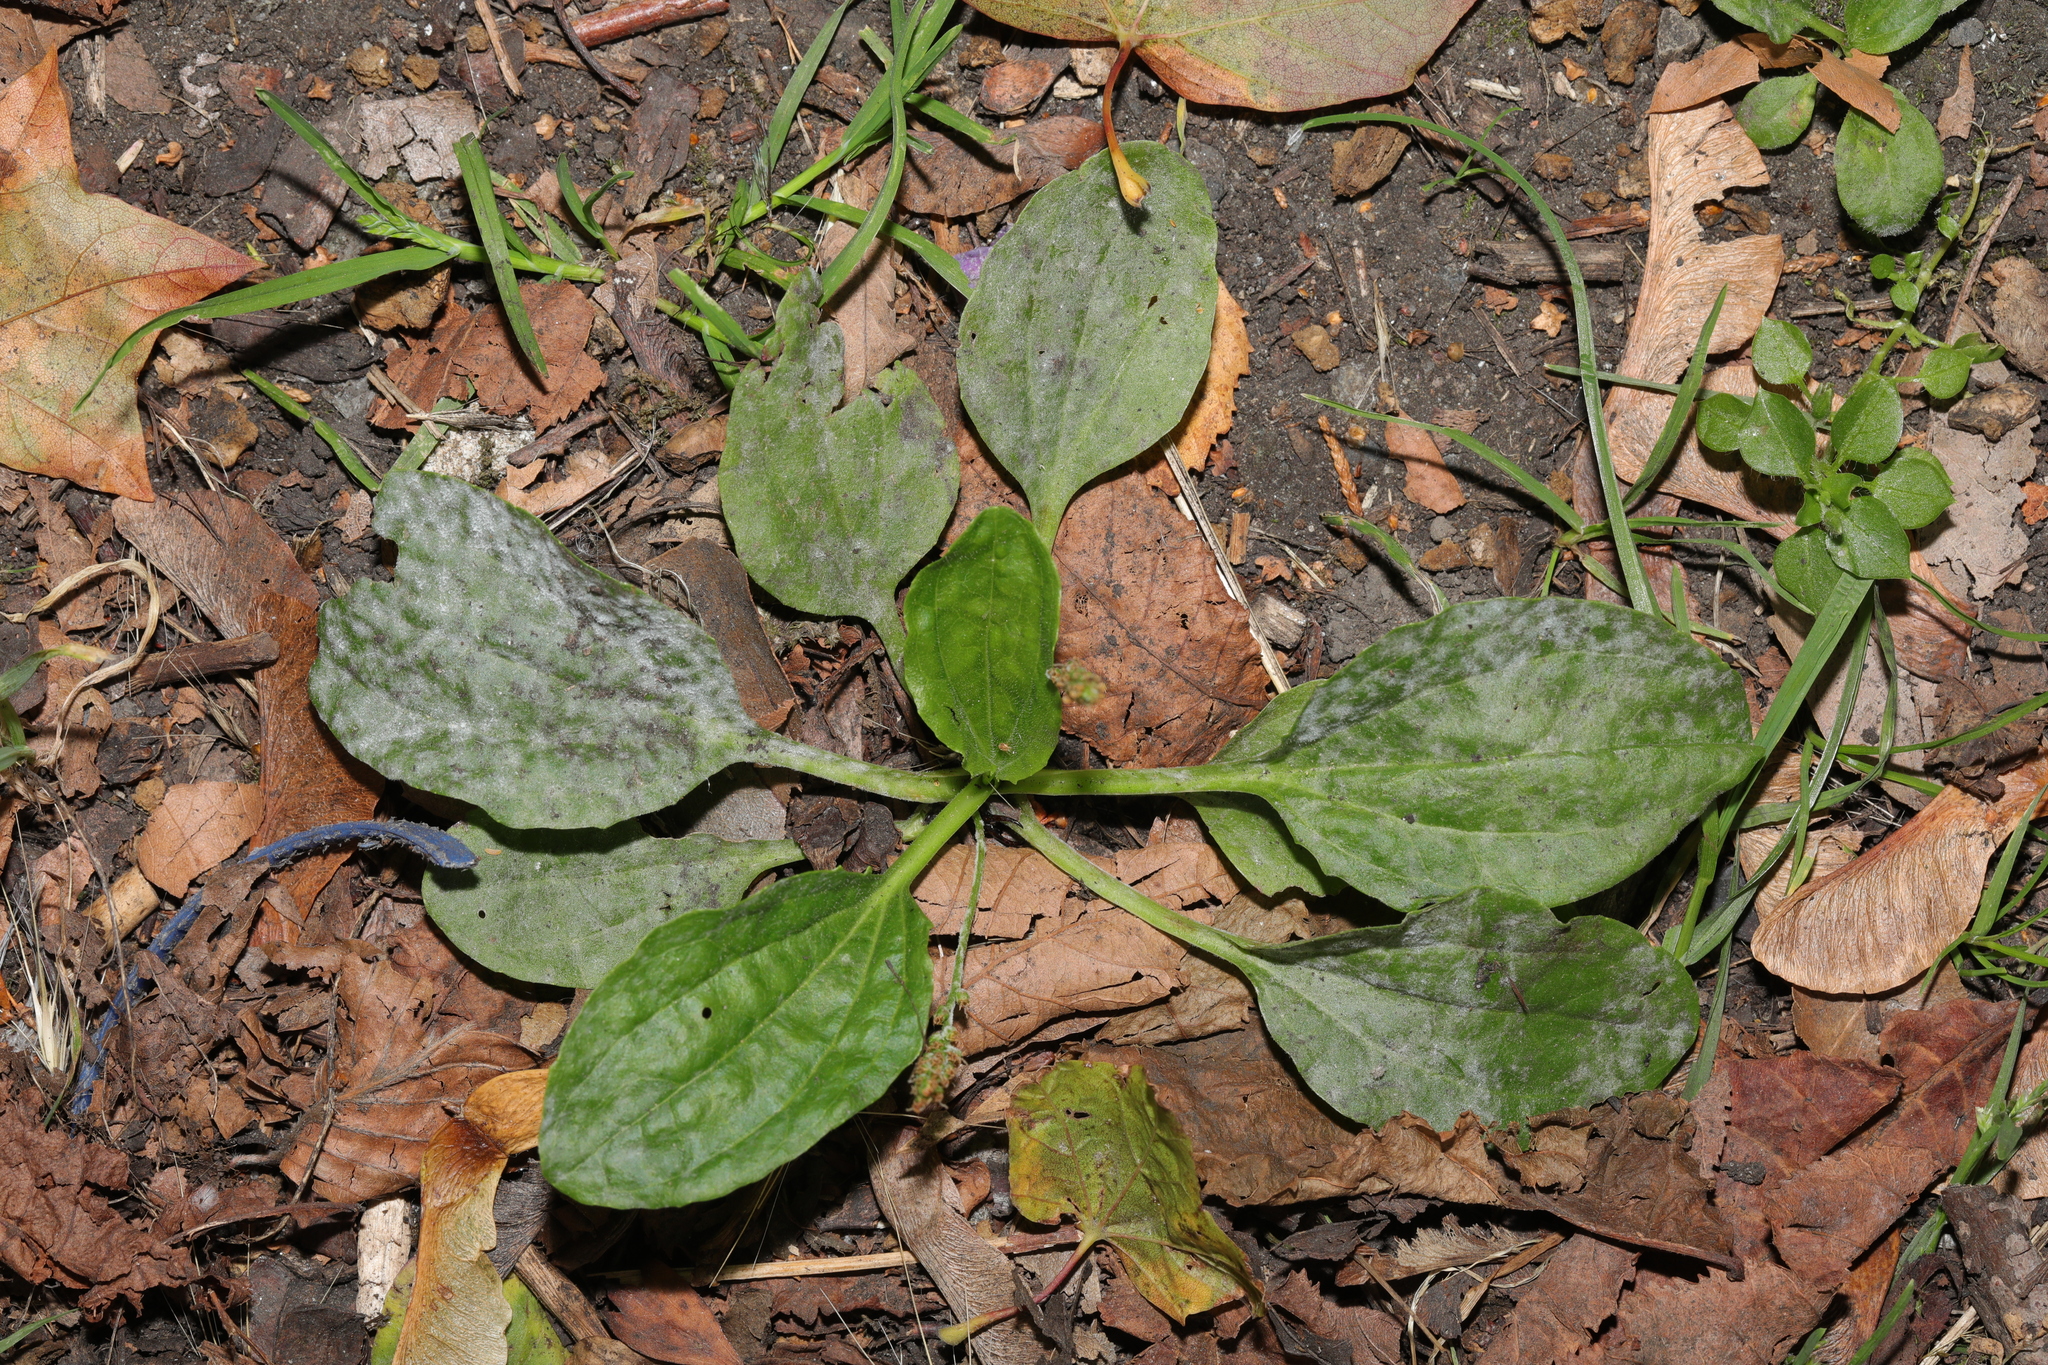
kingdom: Plantae
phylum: Tracheophyta
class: Magnoliopsida
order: Lamiales
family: Plantaginaceae
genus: Plantago
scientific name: Plantago major
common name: Common plantain
